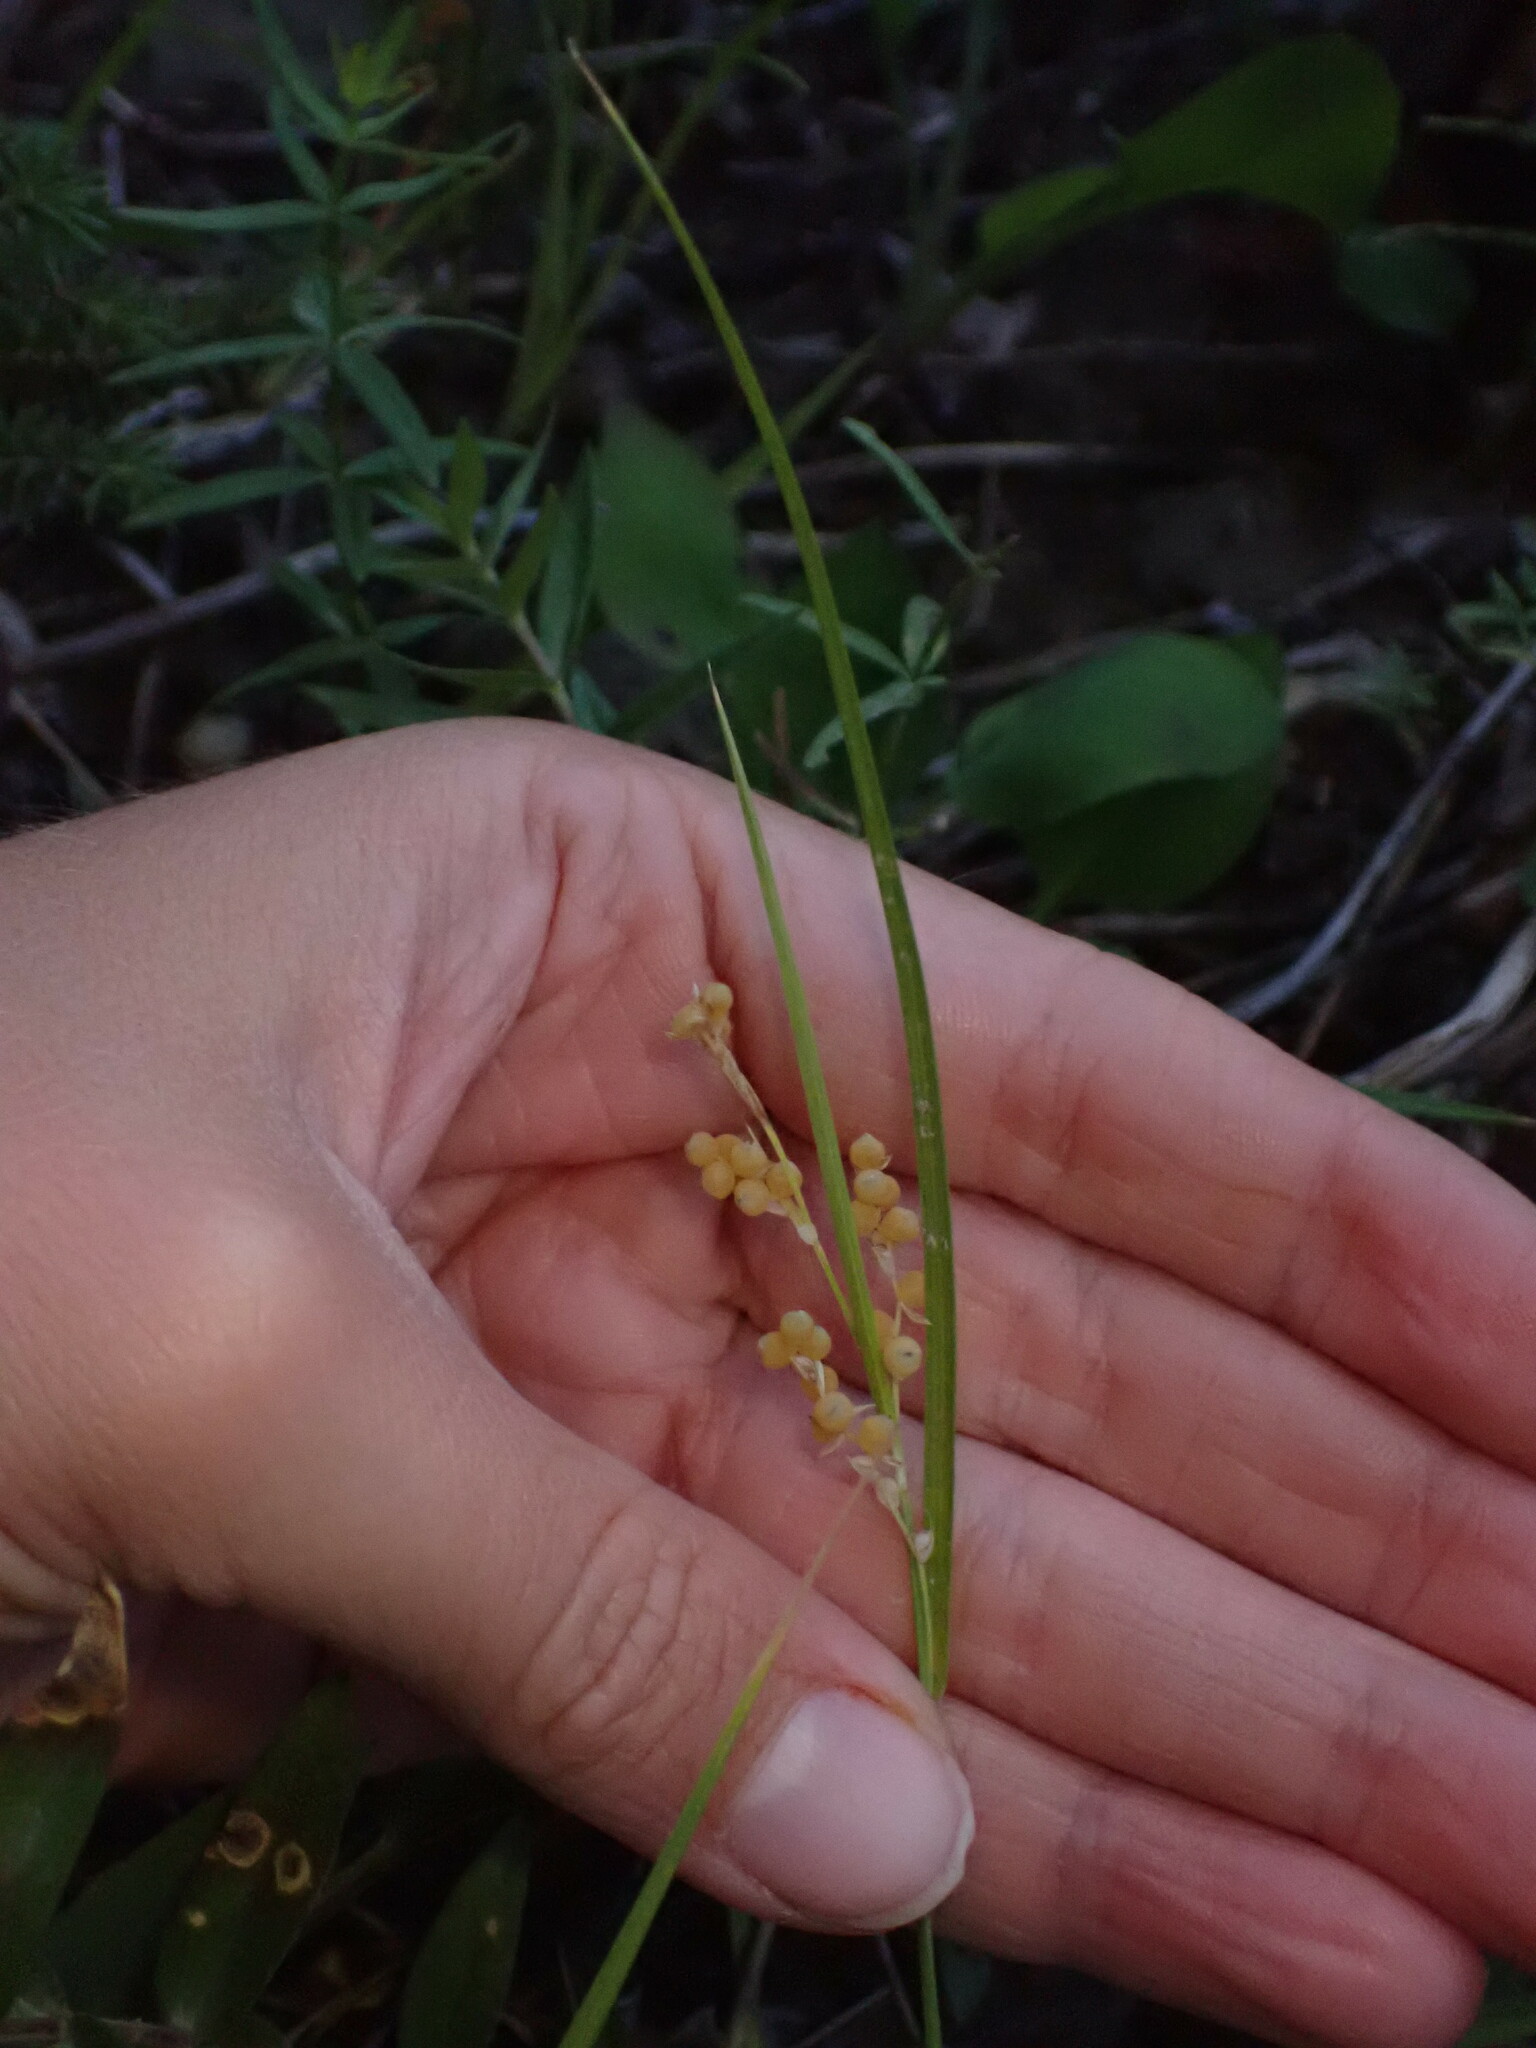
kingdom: Plantae
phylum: Tracheophyta
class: Liliopsida
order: Poales
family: Cyperaceae
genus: Carex
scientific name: Carex aurea
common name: Golden sedge
